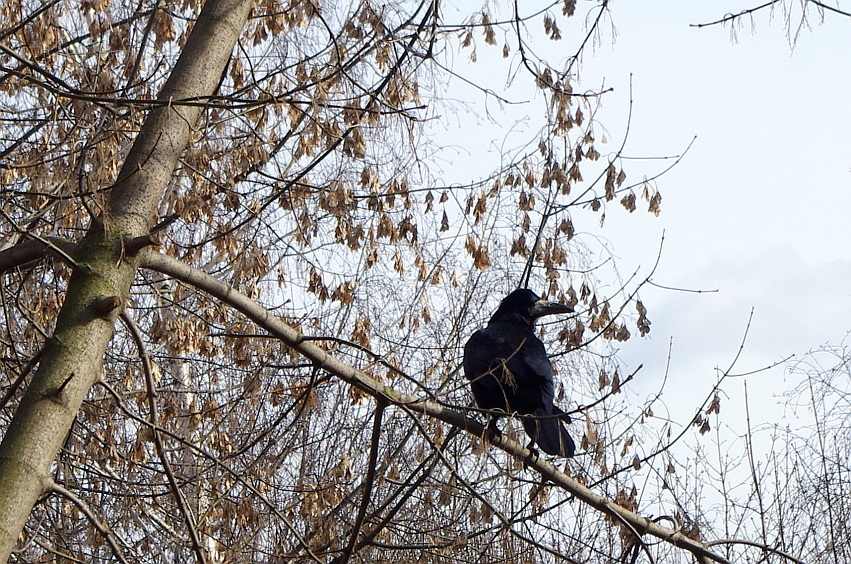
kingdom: Plantae
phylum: Tracheophyta
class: Magnoliopsida
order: Sapindales
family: Sapindaceae
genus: Acer
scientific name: Acer negundo
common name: Ashleaf maple
